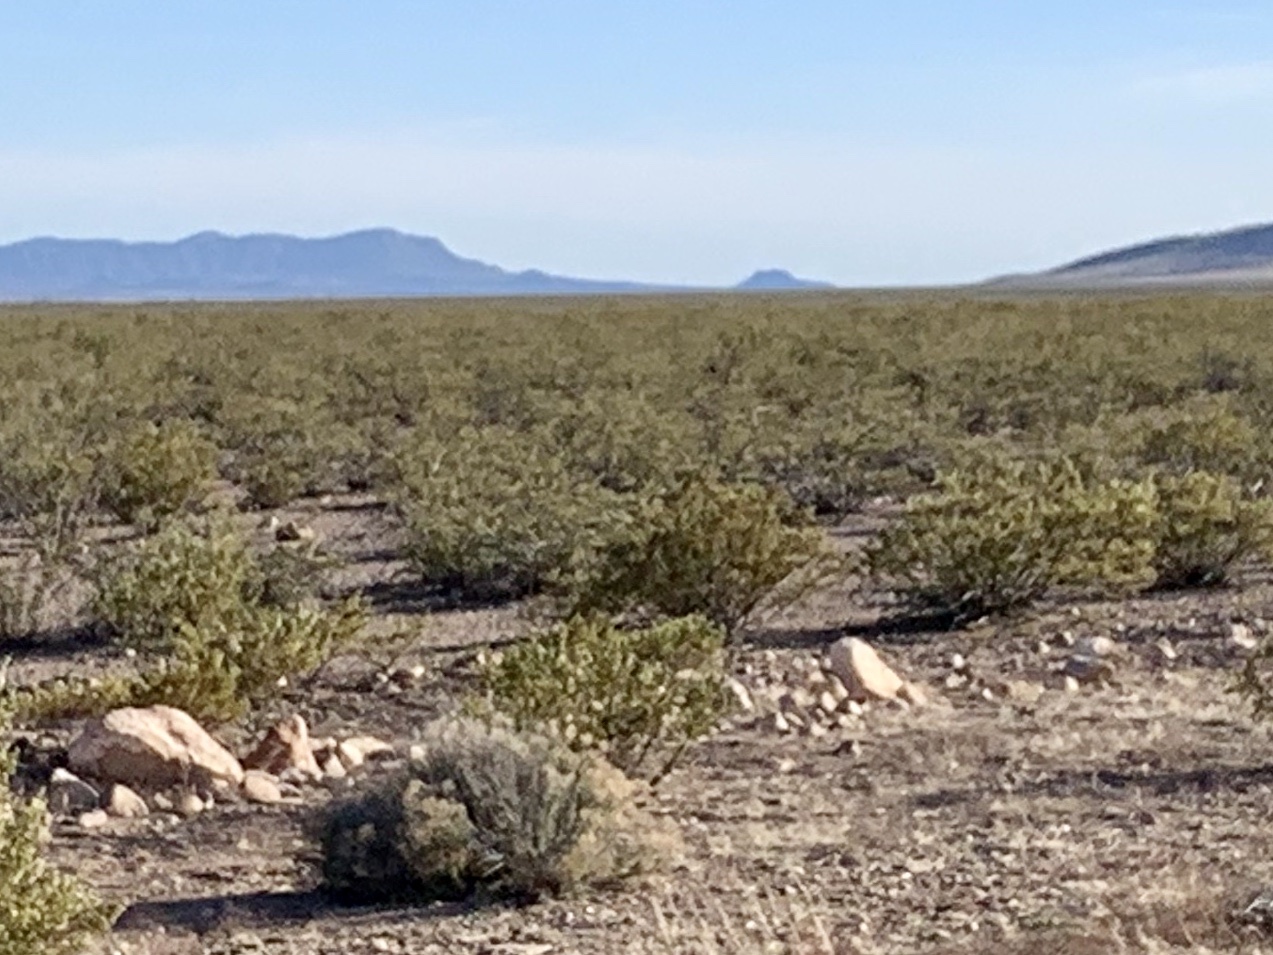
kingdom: Plantae
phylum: Tracheophyta
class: Magnoliopsida
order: Zygophyllales
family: Zygophyllaceae
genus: Larrea
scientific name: Larrea tridentata
